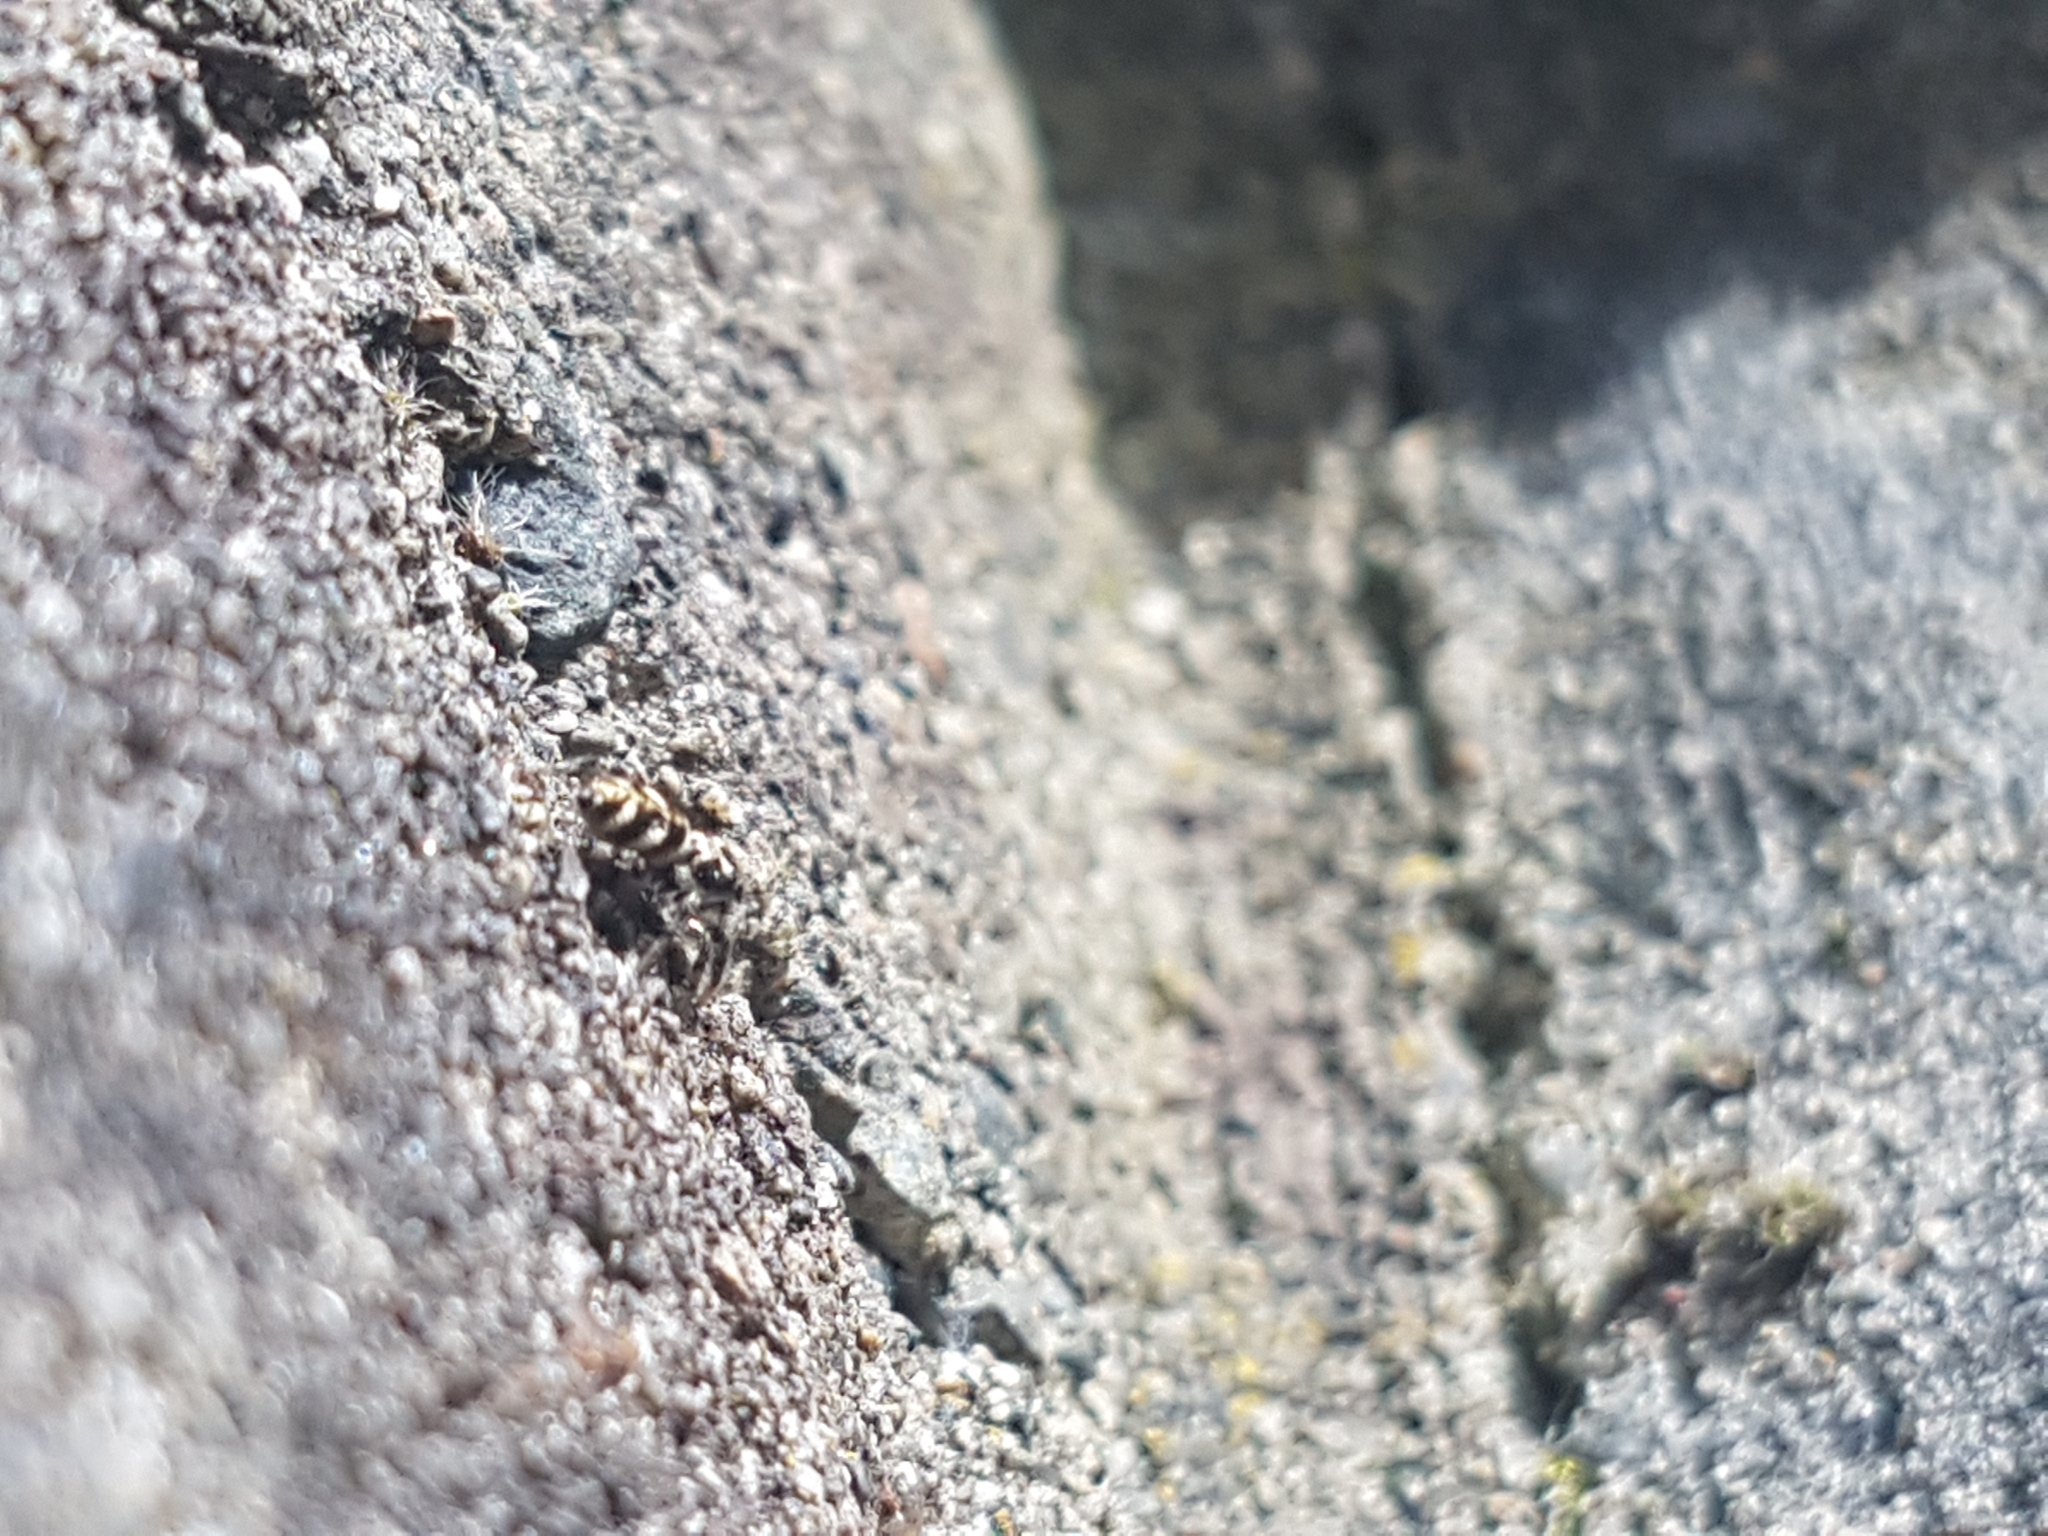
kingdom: Animalia
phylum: Arthropoda
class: Arachnida
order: Araneae
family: Salticidae
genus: Salticus
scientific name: Salticus scenicus
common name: Zebra jumper
